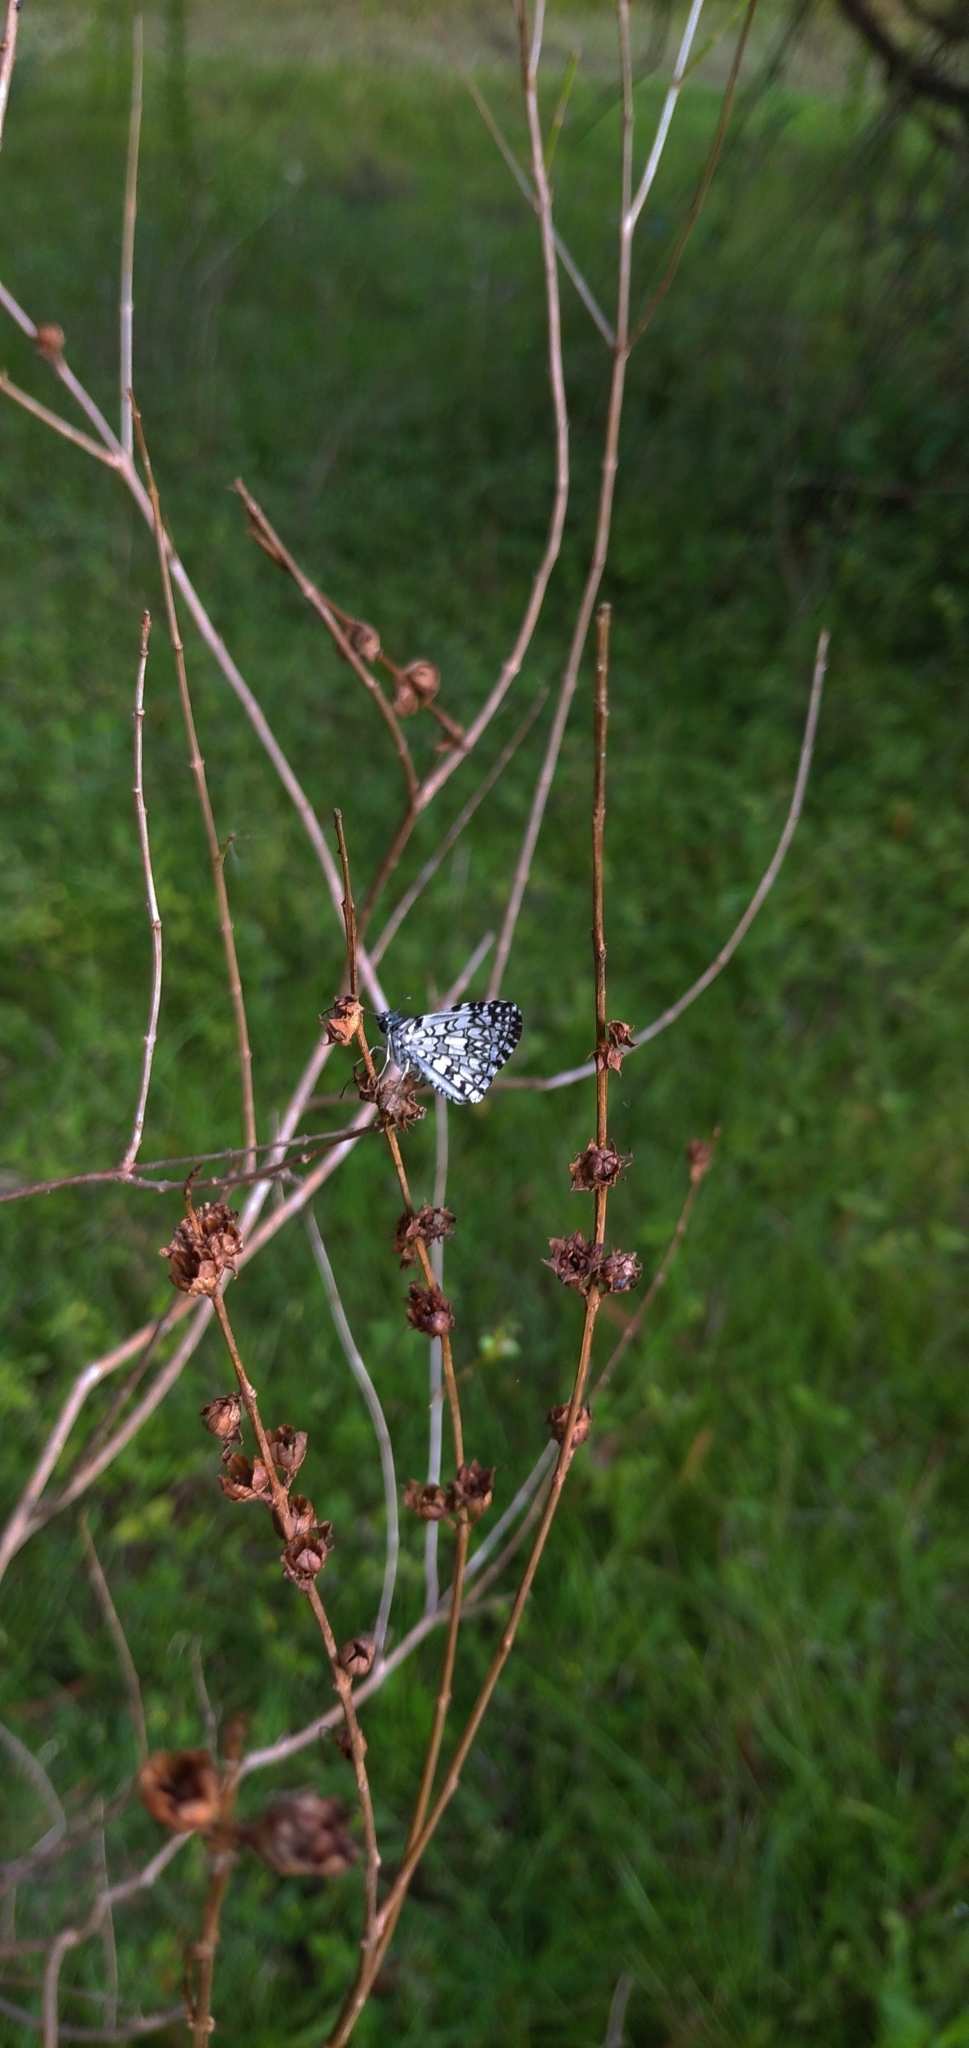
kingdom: Animalia
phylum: Arthropoda
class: Insecta
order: Lepidoptera
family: Hesperiidae
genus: Pyrgus
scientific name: Pyrgus oileus
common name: Tropical checkered-skipper
